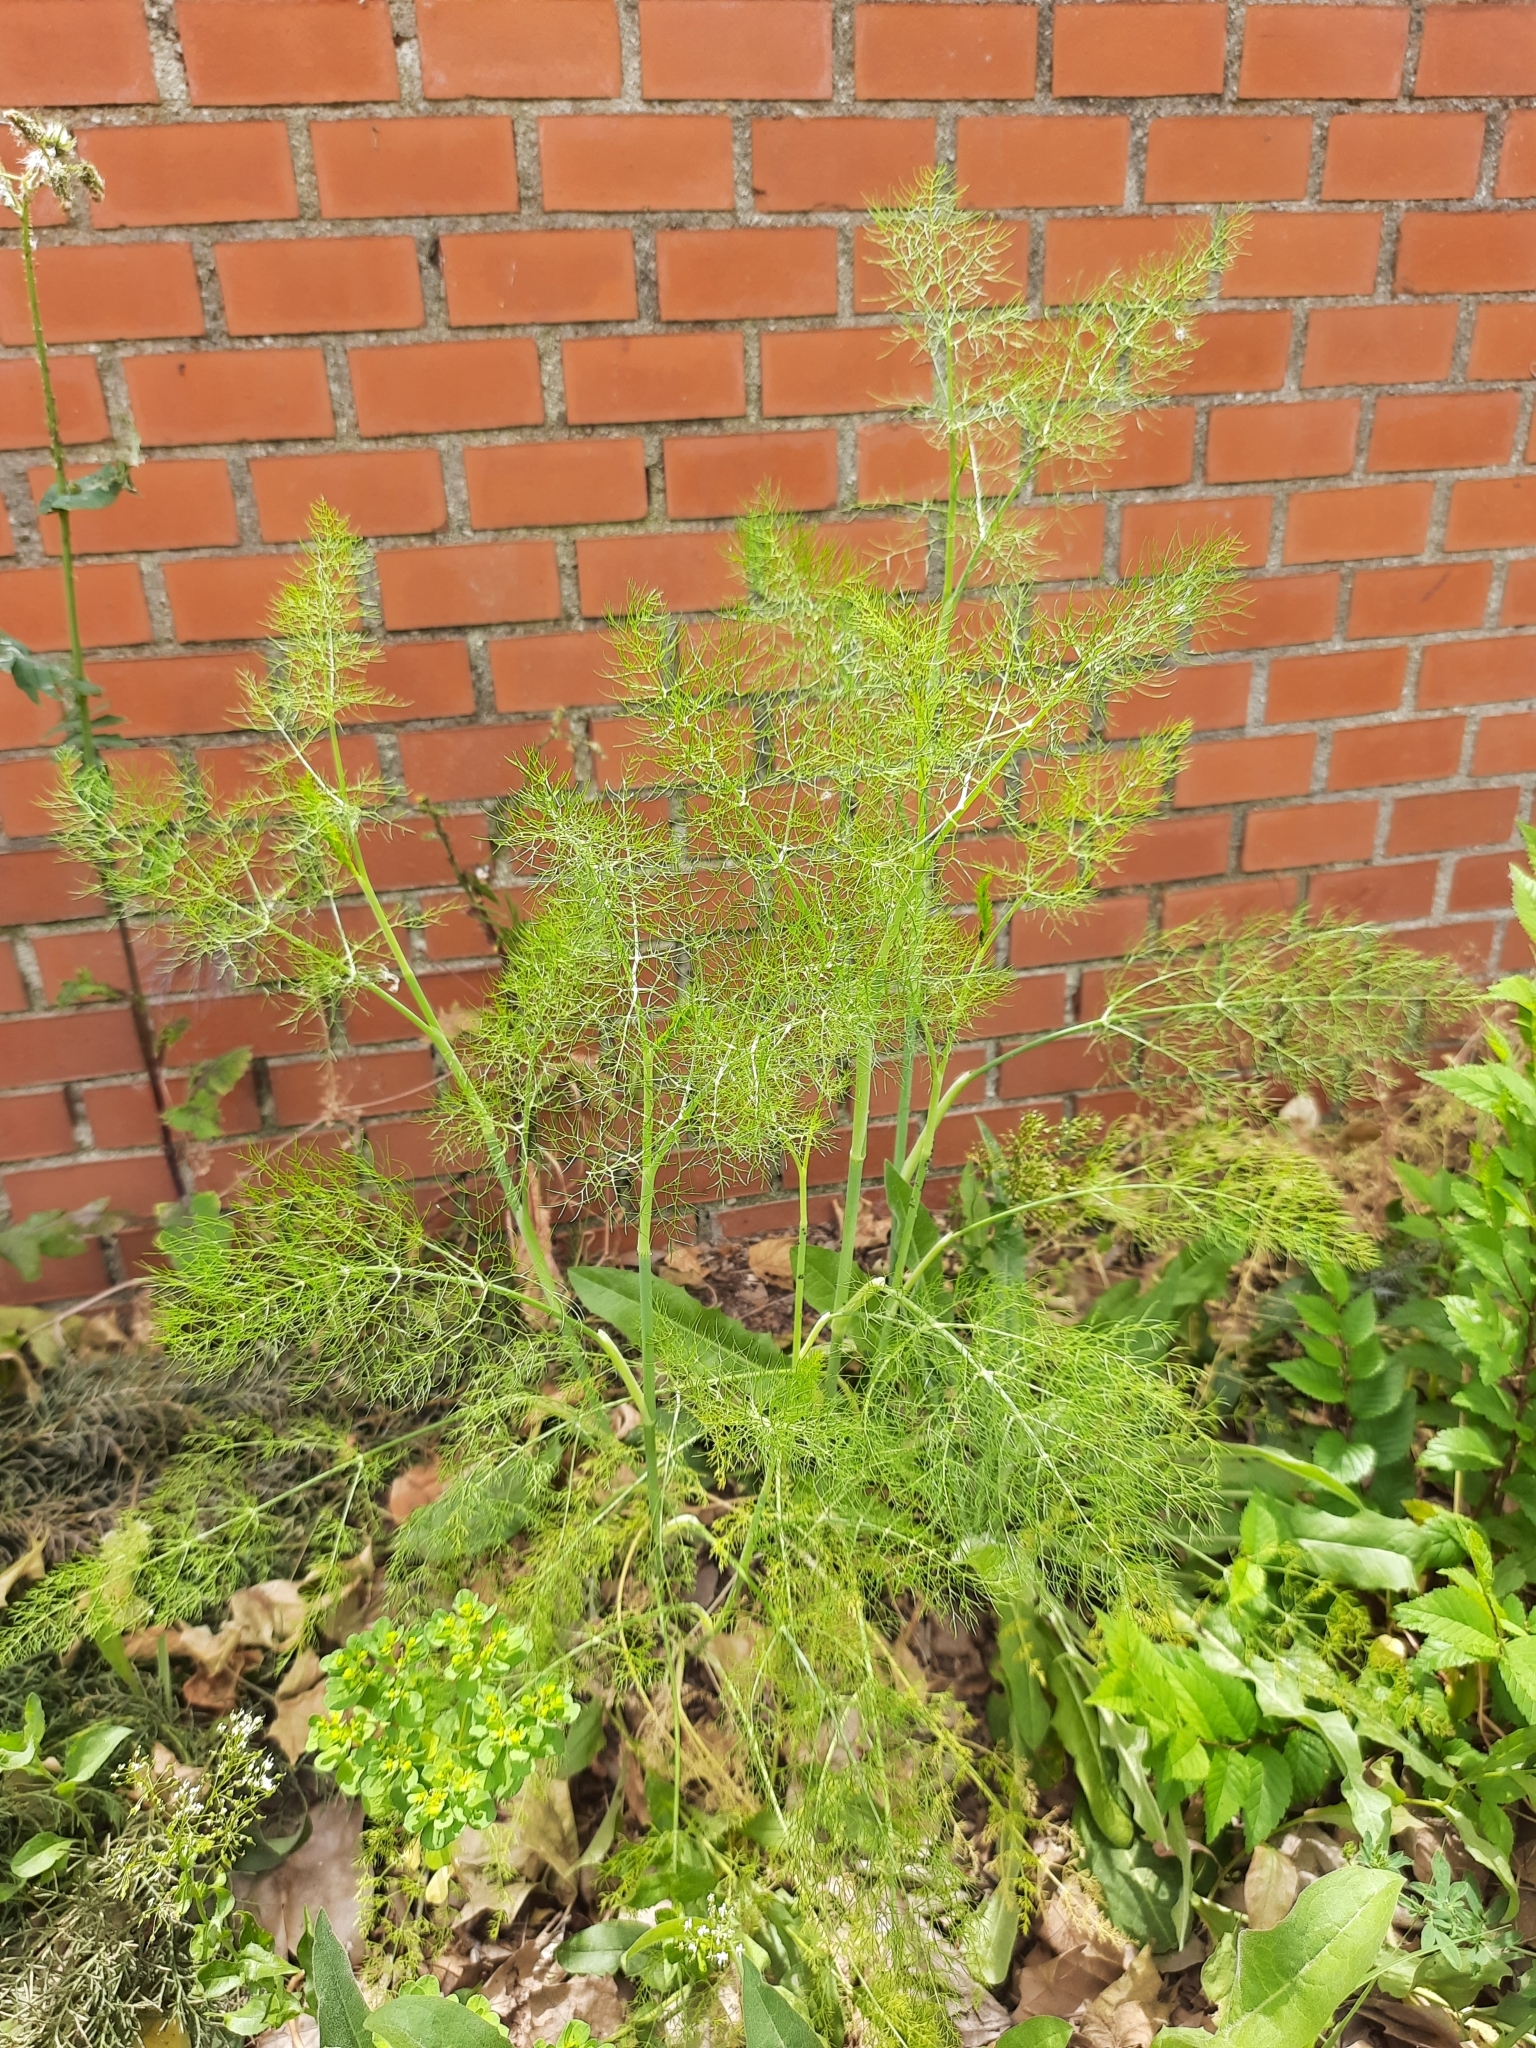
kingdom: Plantae
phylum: Tracheophyta
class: Magnoliopsida
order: Apiales
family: Apiaceae
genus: Foeniculum
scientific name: Foeniculum vulgare
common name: Fennel
